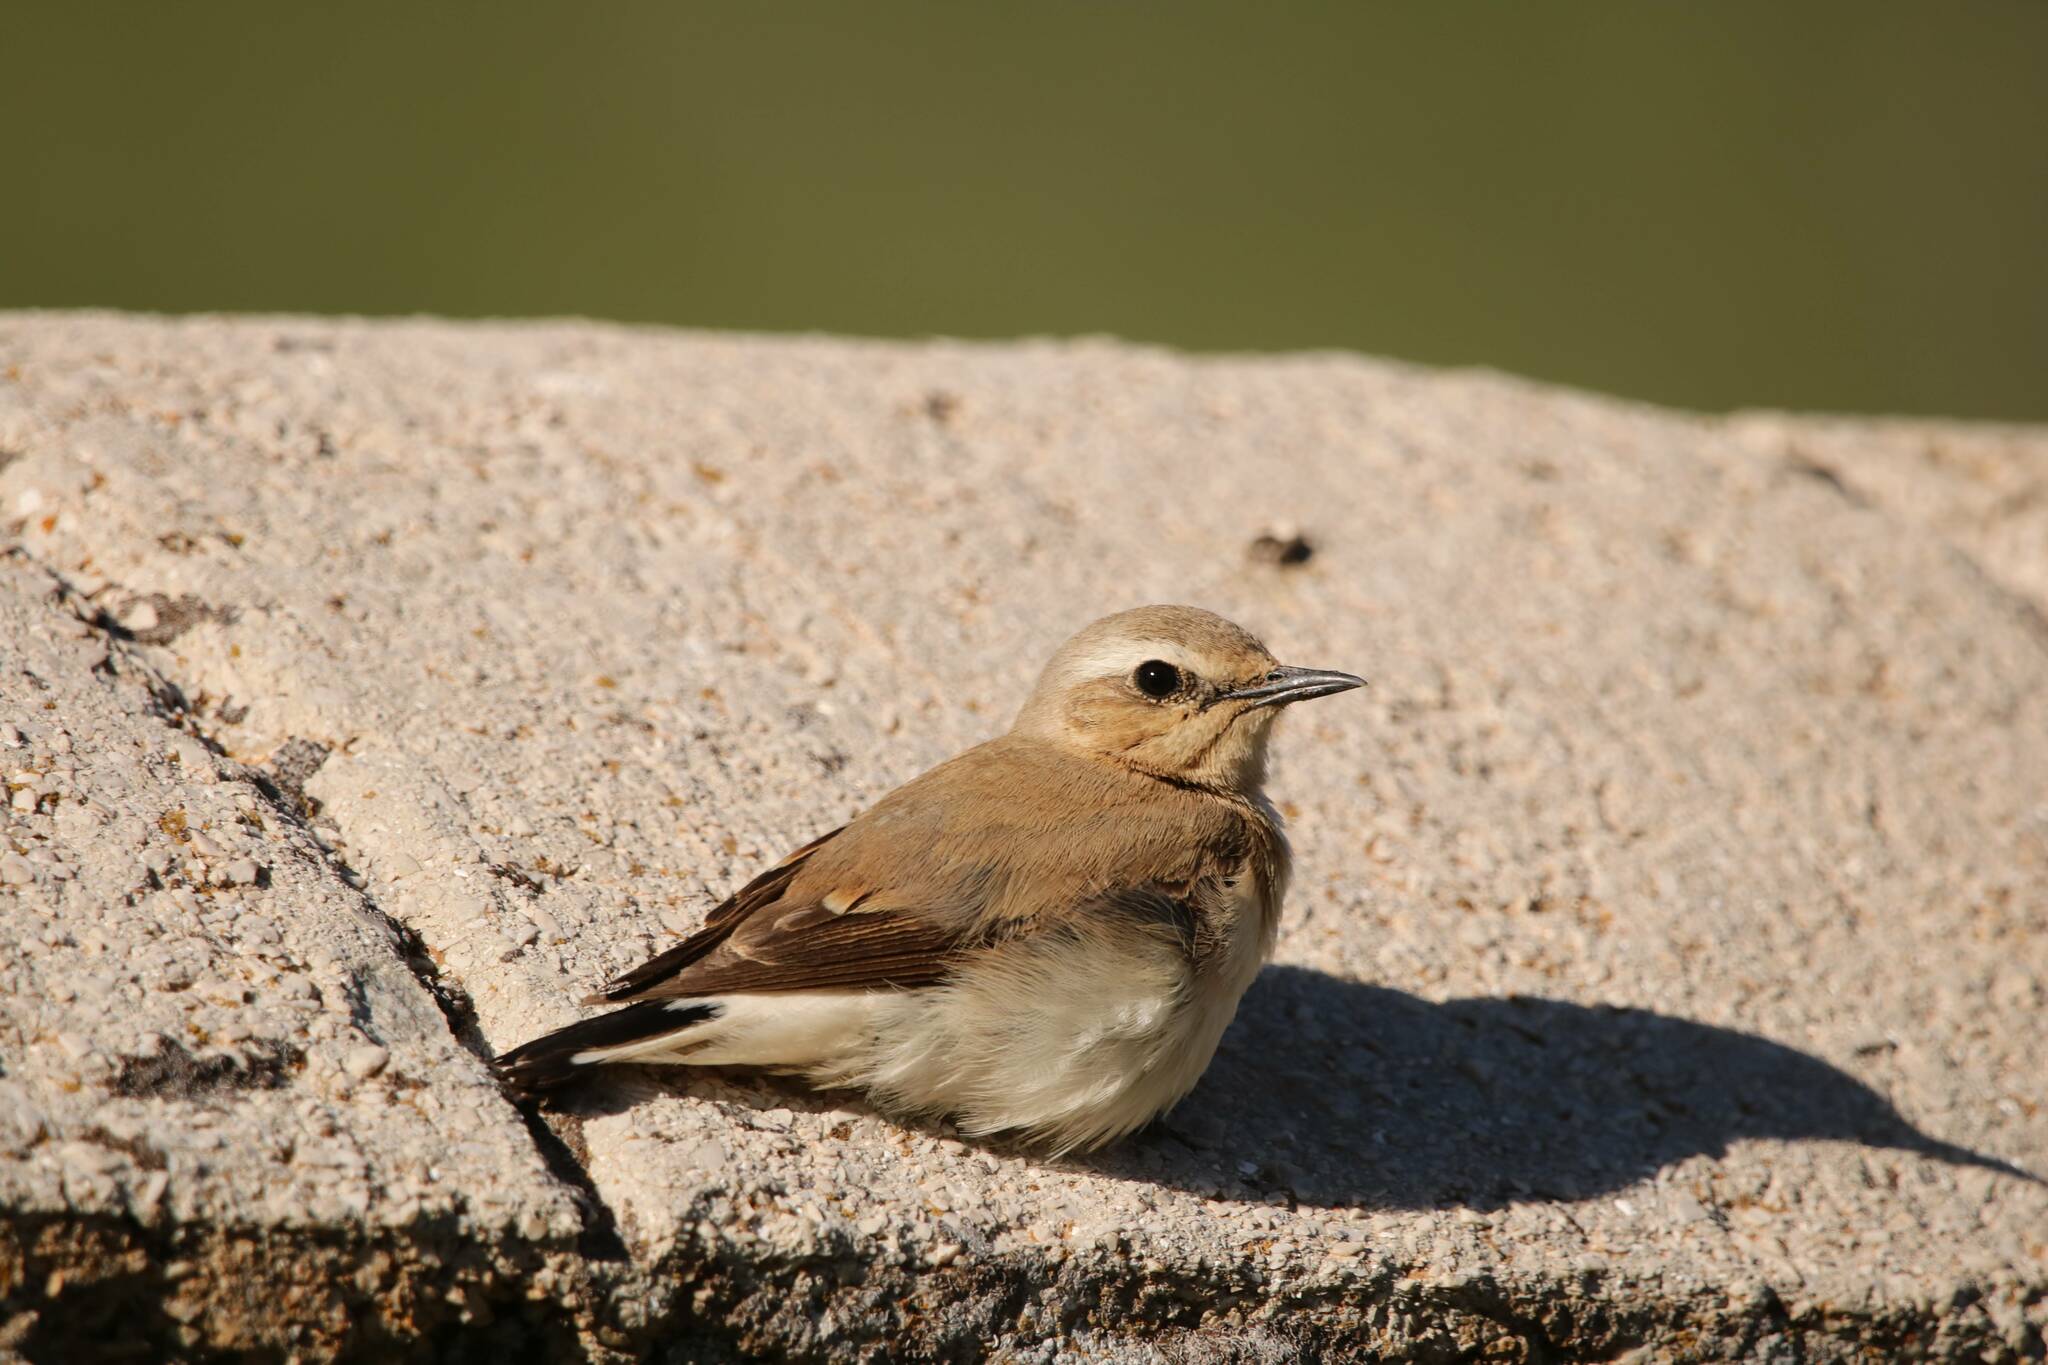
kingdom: Animalia
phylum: Chordata
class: Aves
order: Passeriformes
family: Muscicapidae
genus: Oenanthe
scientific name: Oenanthe oenanthe
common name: Northern wheatear
